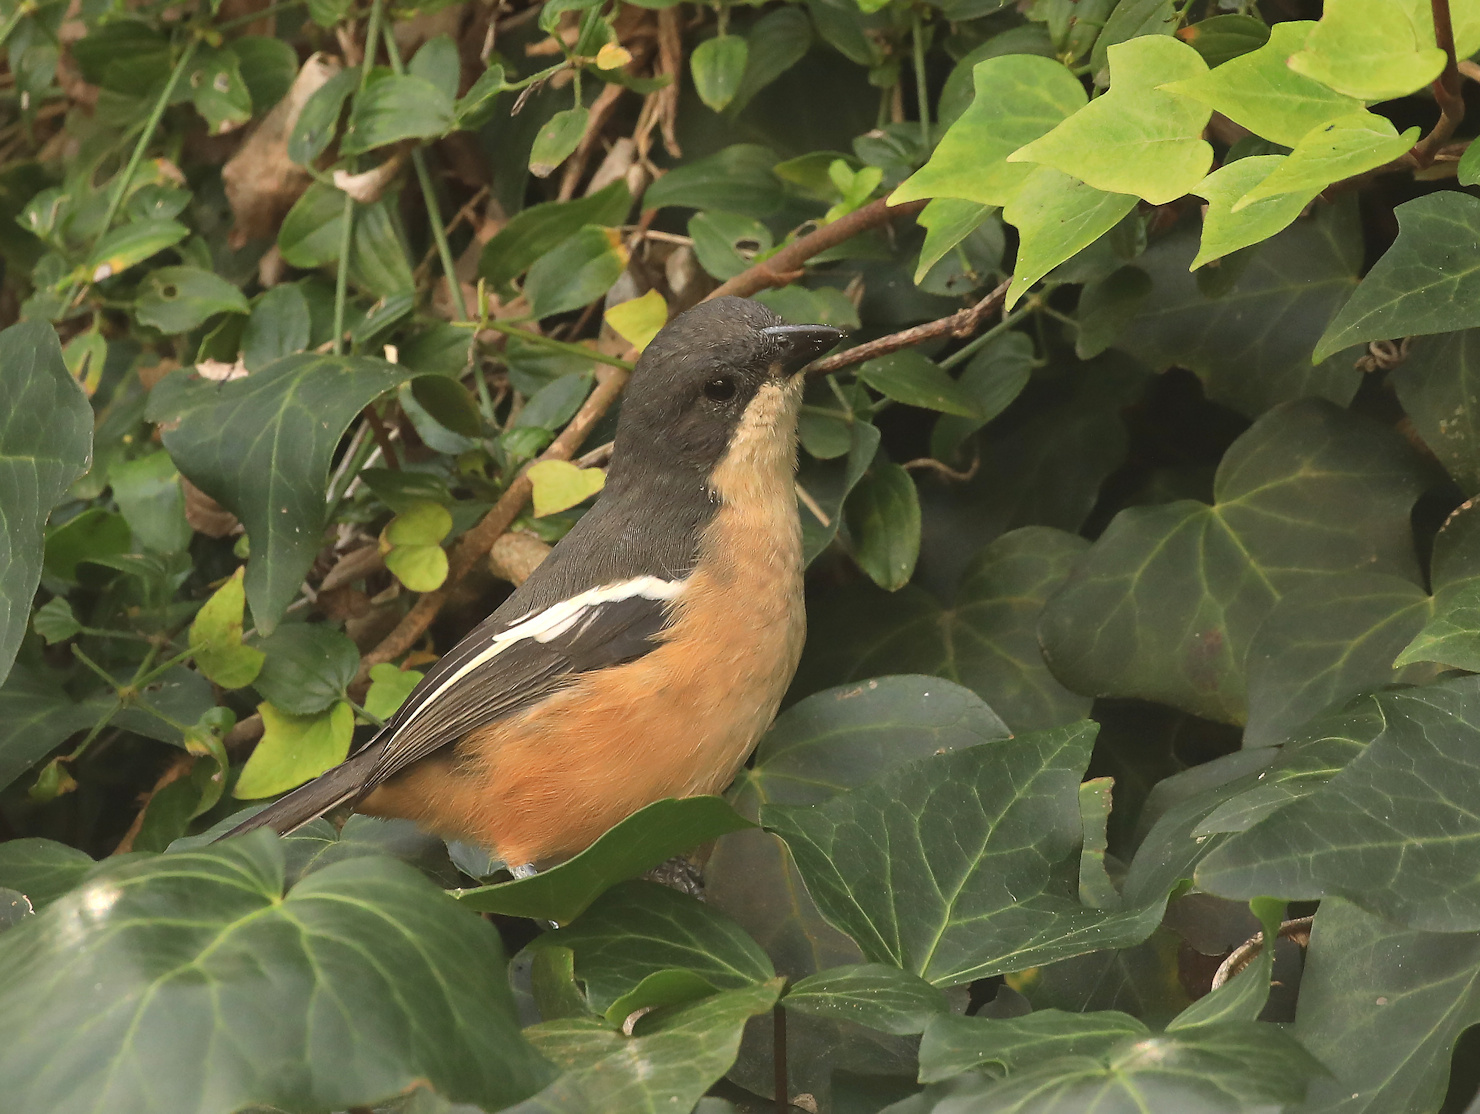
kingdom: Animalia
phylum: Chordata
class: Aves
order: Passeriformes
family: Malaconotidae
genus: Laniarius
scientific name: Laniarius ferrugineus
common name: Southern boubou
